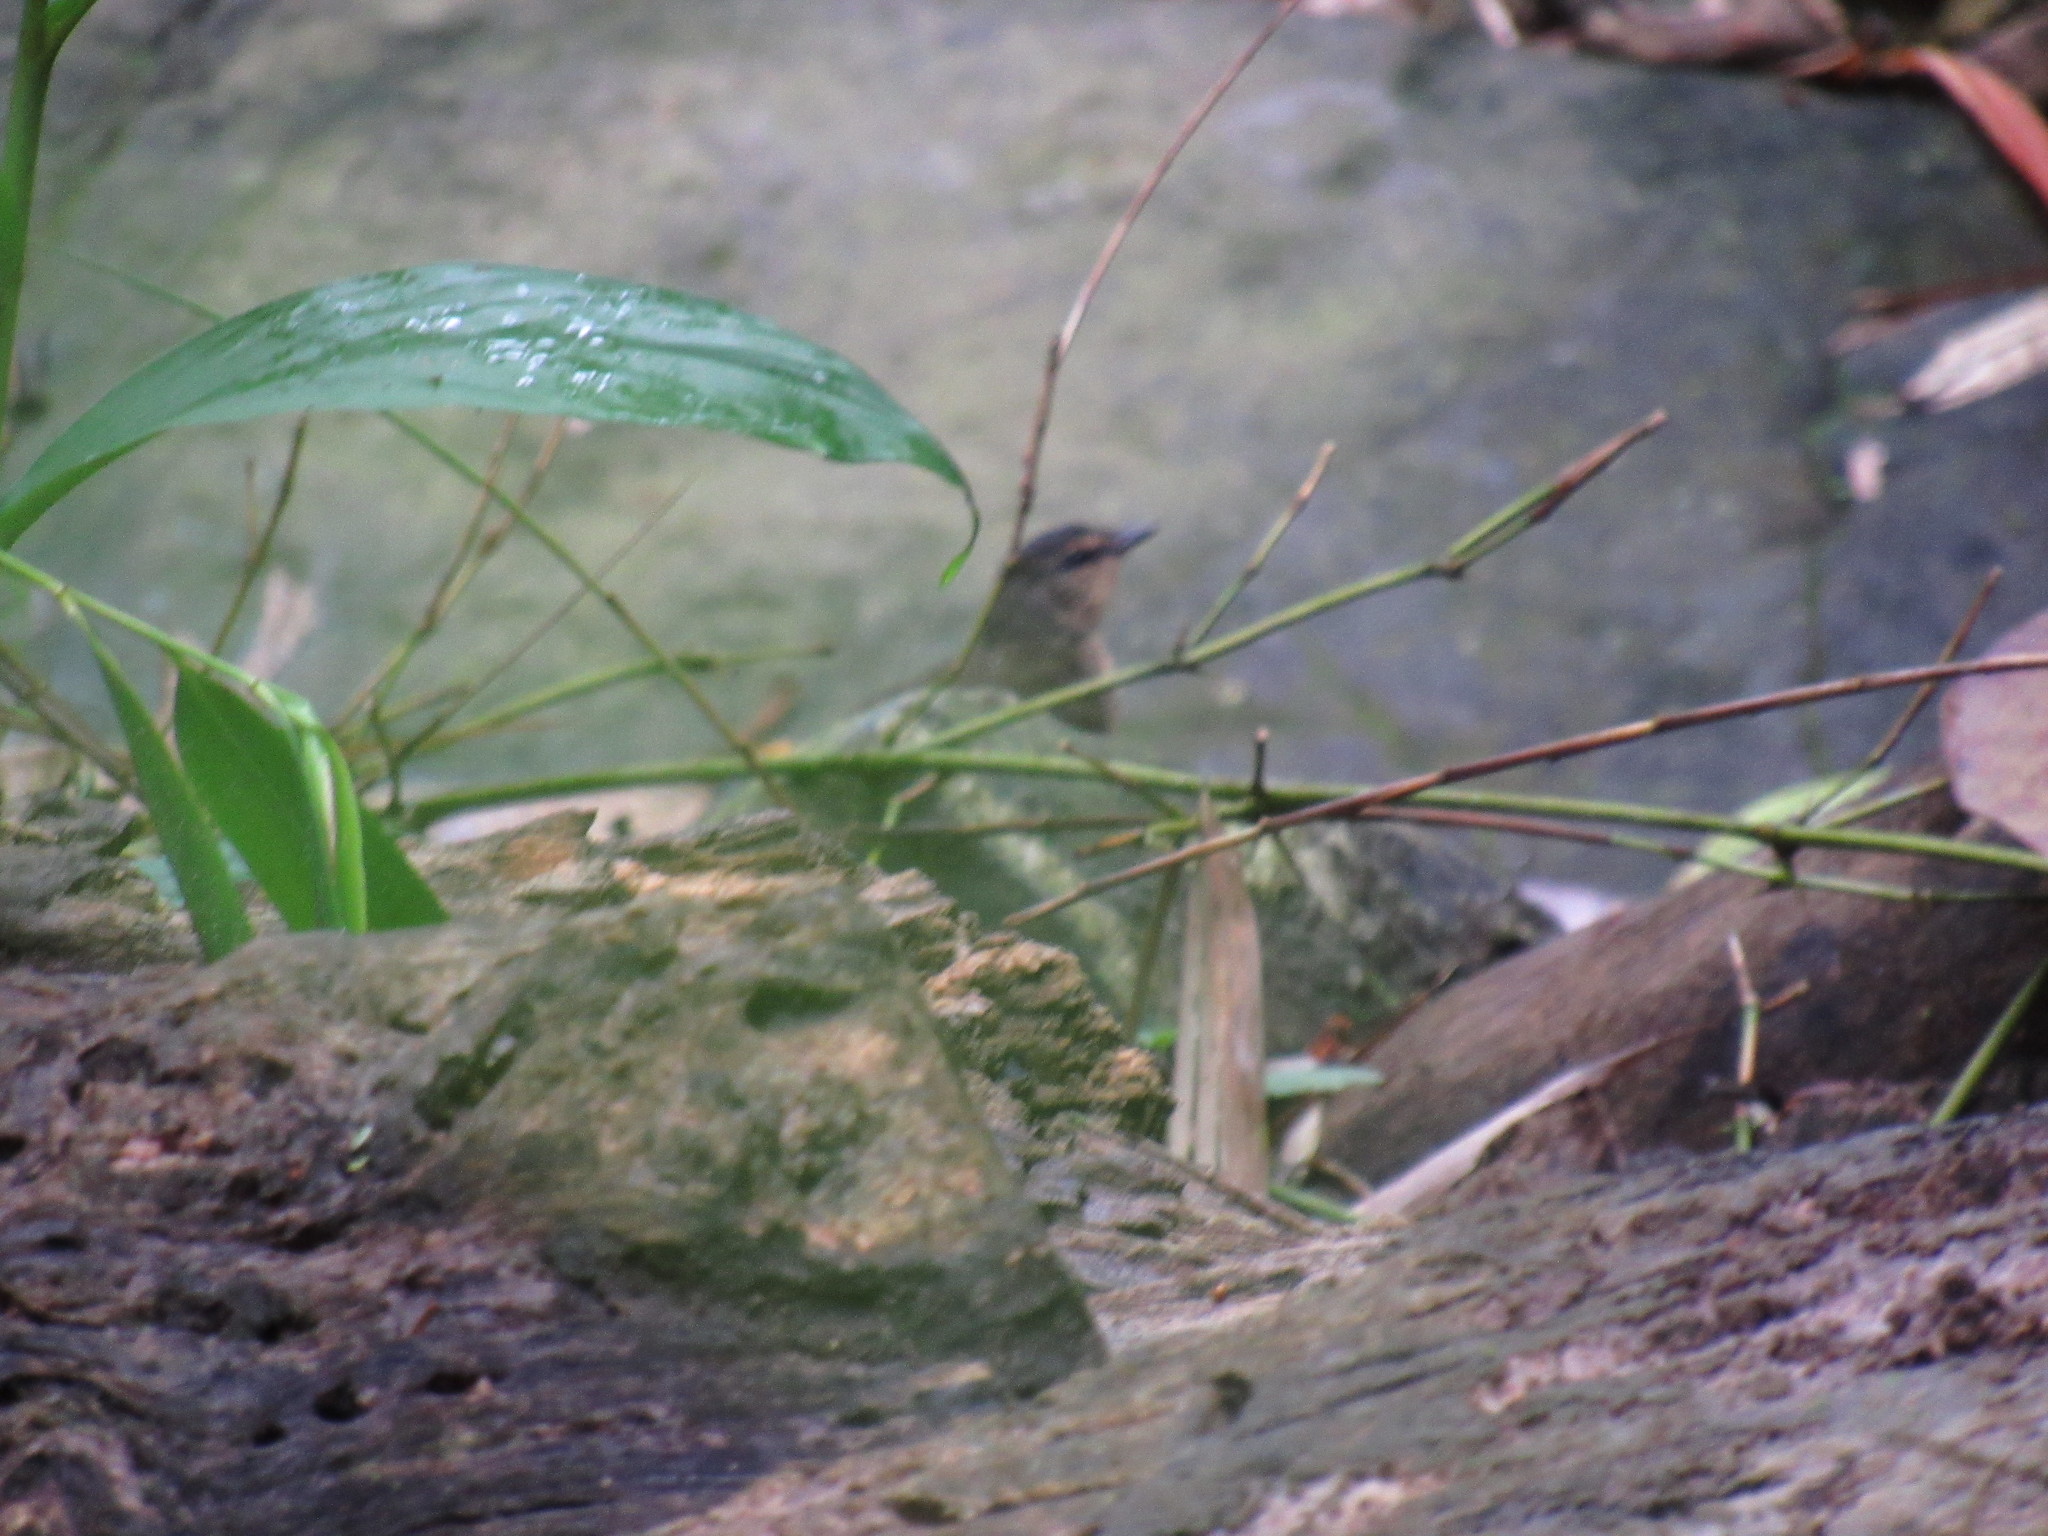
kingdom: Animalia
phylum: Chordata
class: Aves
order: Passeriformes
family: Parulidae
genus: Myiothlypis
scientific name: Myiothlypis fulvicauda
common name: Buff-rumped warbler
